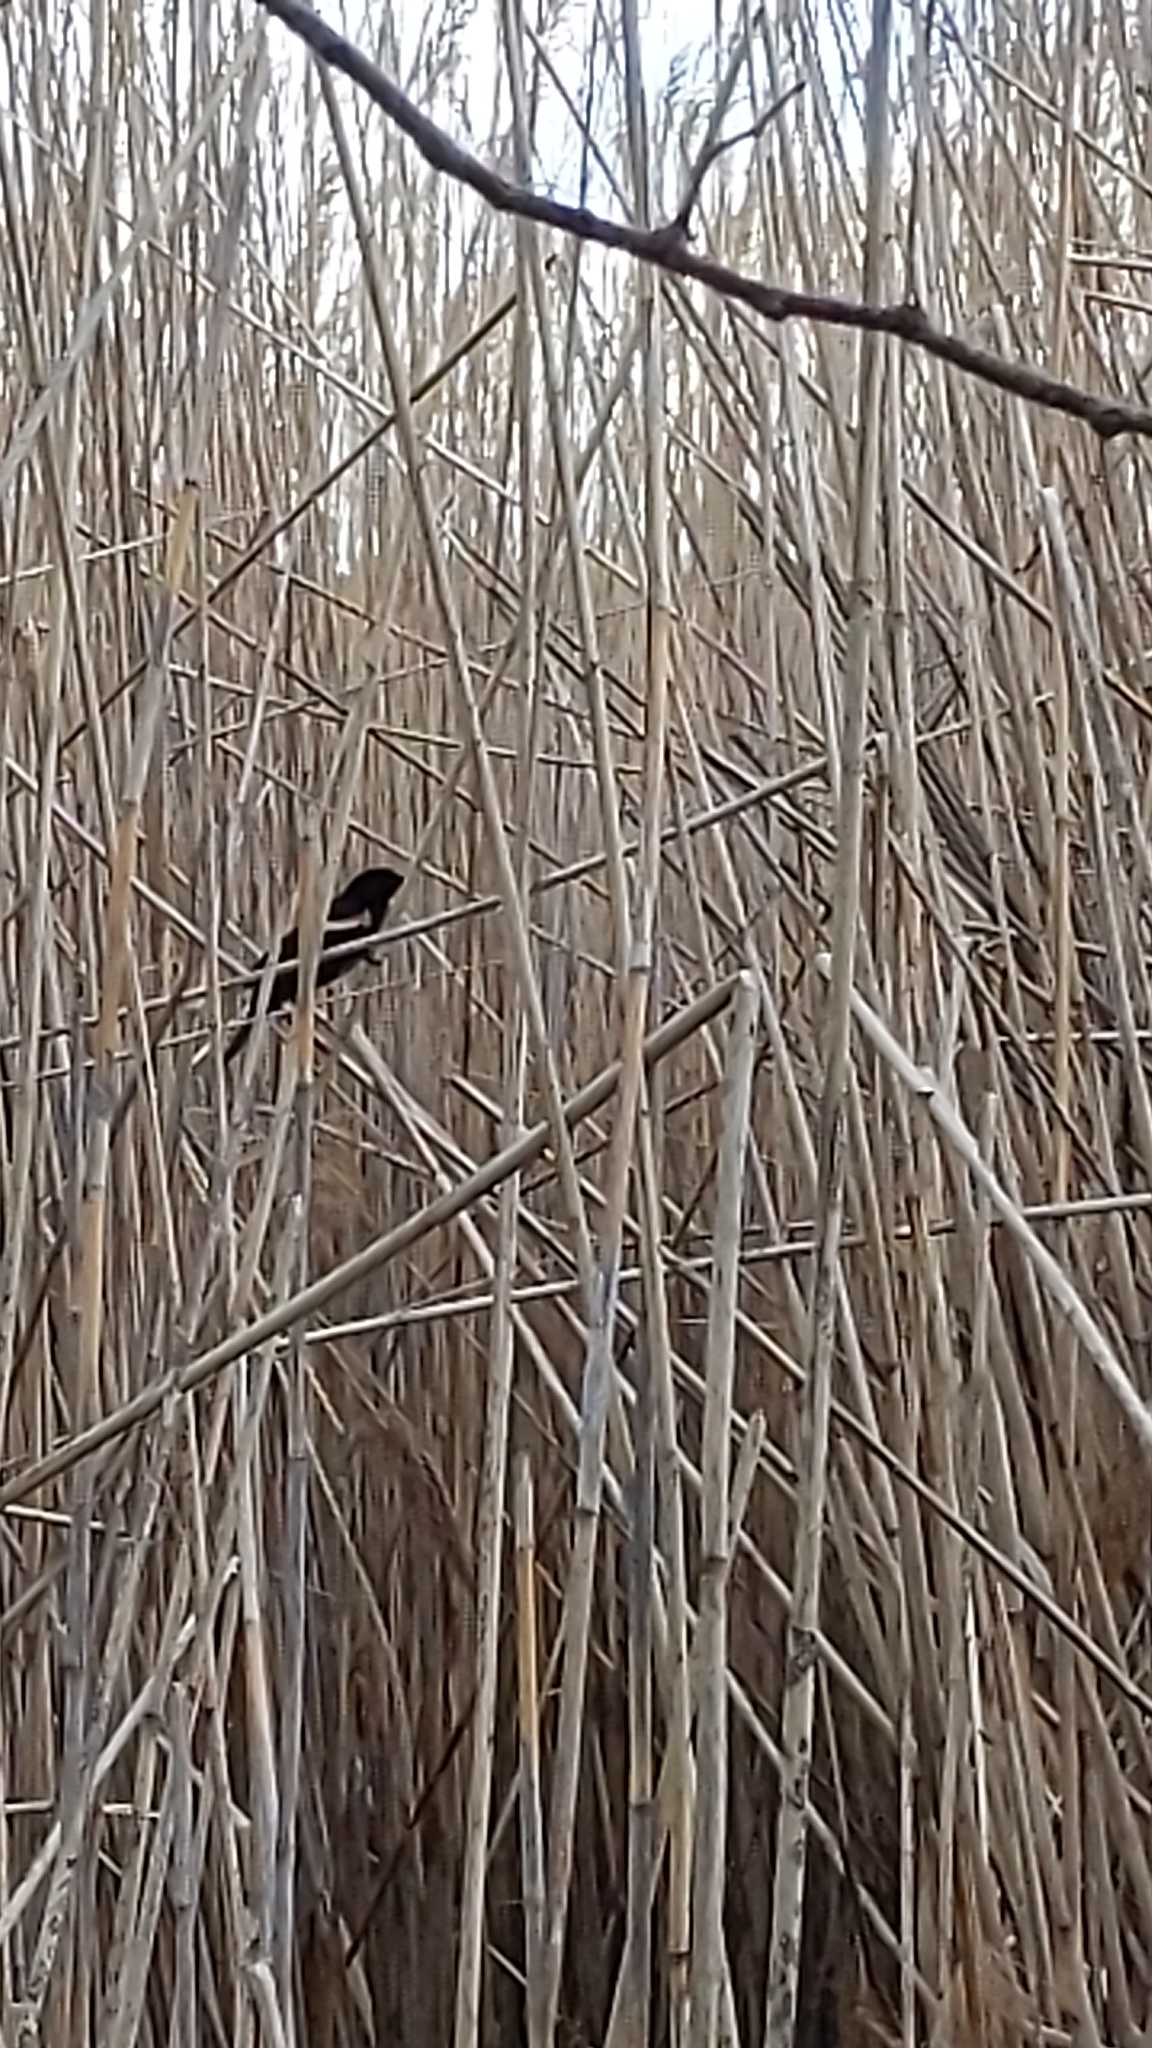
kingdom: Animalia
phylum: Chordata
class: Aves
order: Passeriformes
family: Icteridae
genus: Agelaius
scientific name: Agelaius phoeniceus
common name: Red-winged blackbird
